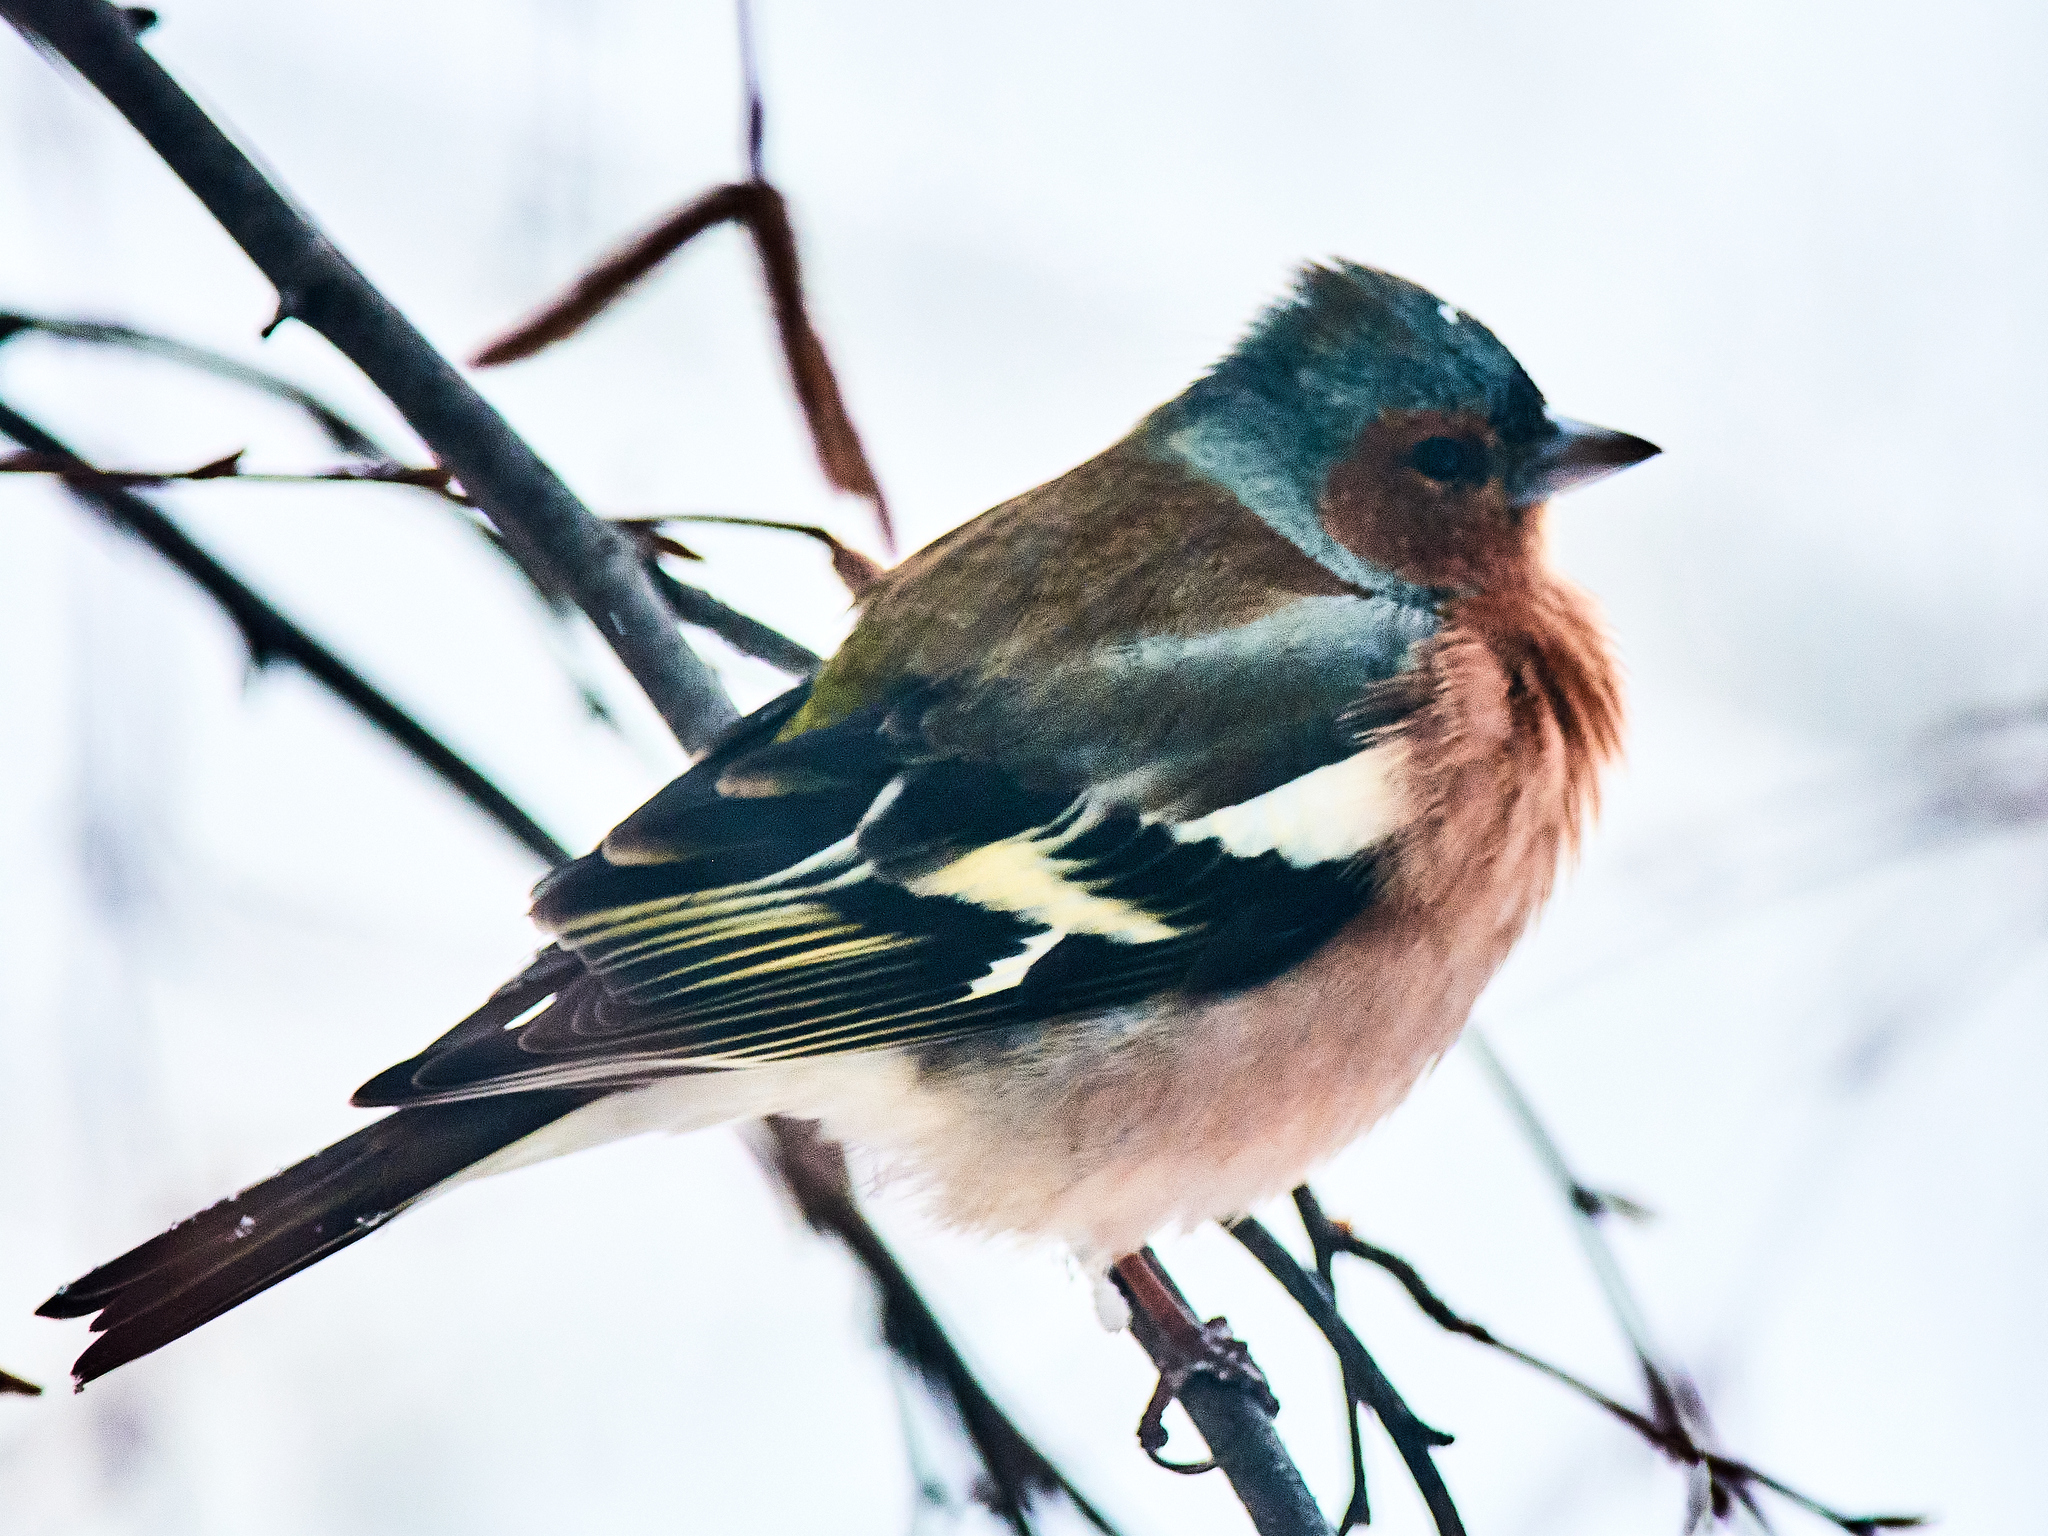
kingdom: Animalia
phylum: Chordata
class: Aves
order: Passeriformes
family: Fringillidae
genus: Fringilla
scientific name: Fringilla coelebs
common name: Common chaffinch
